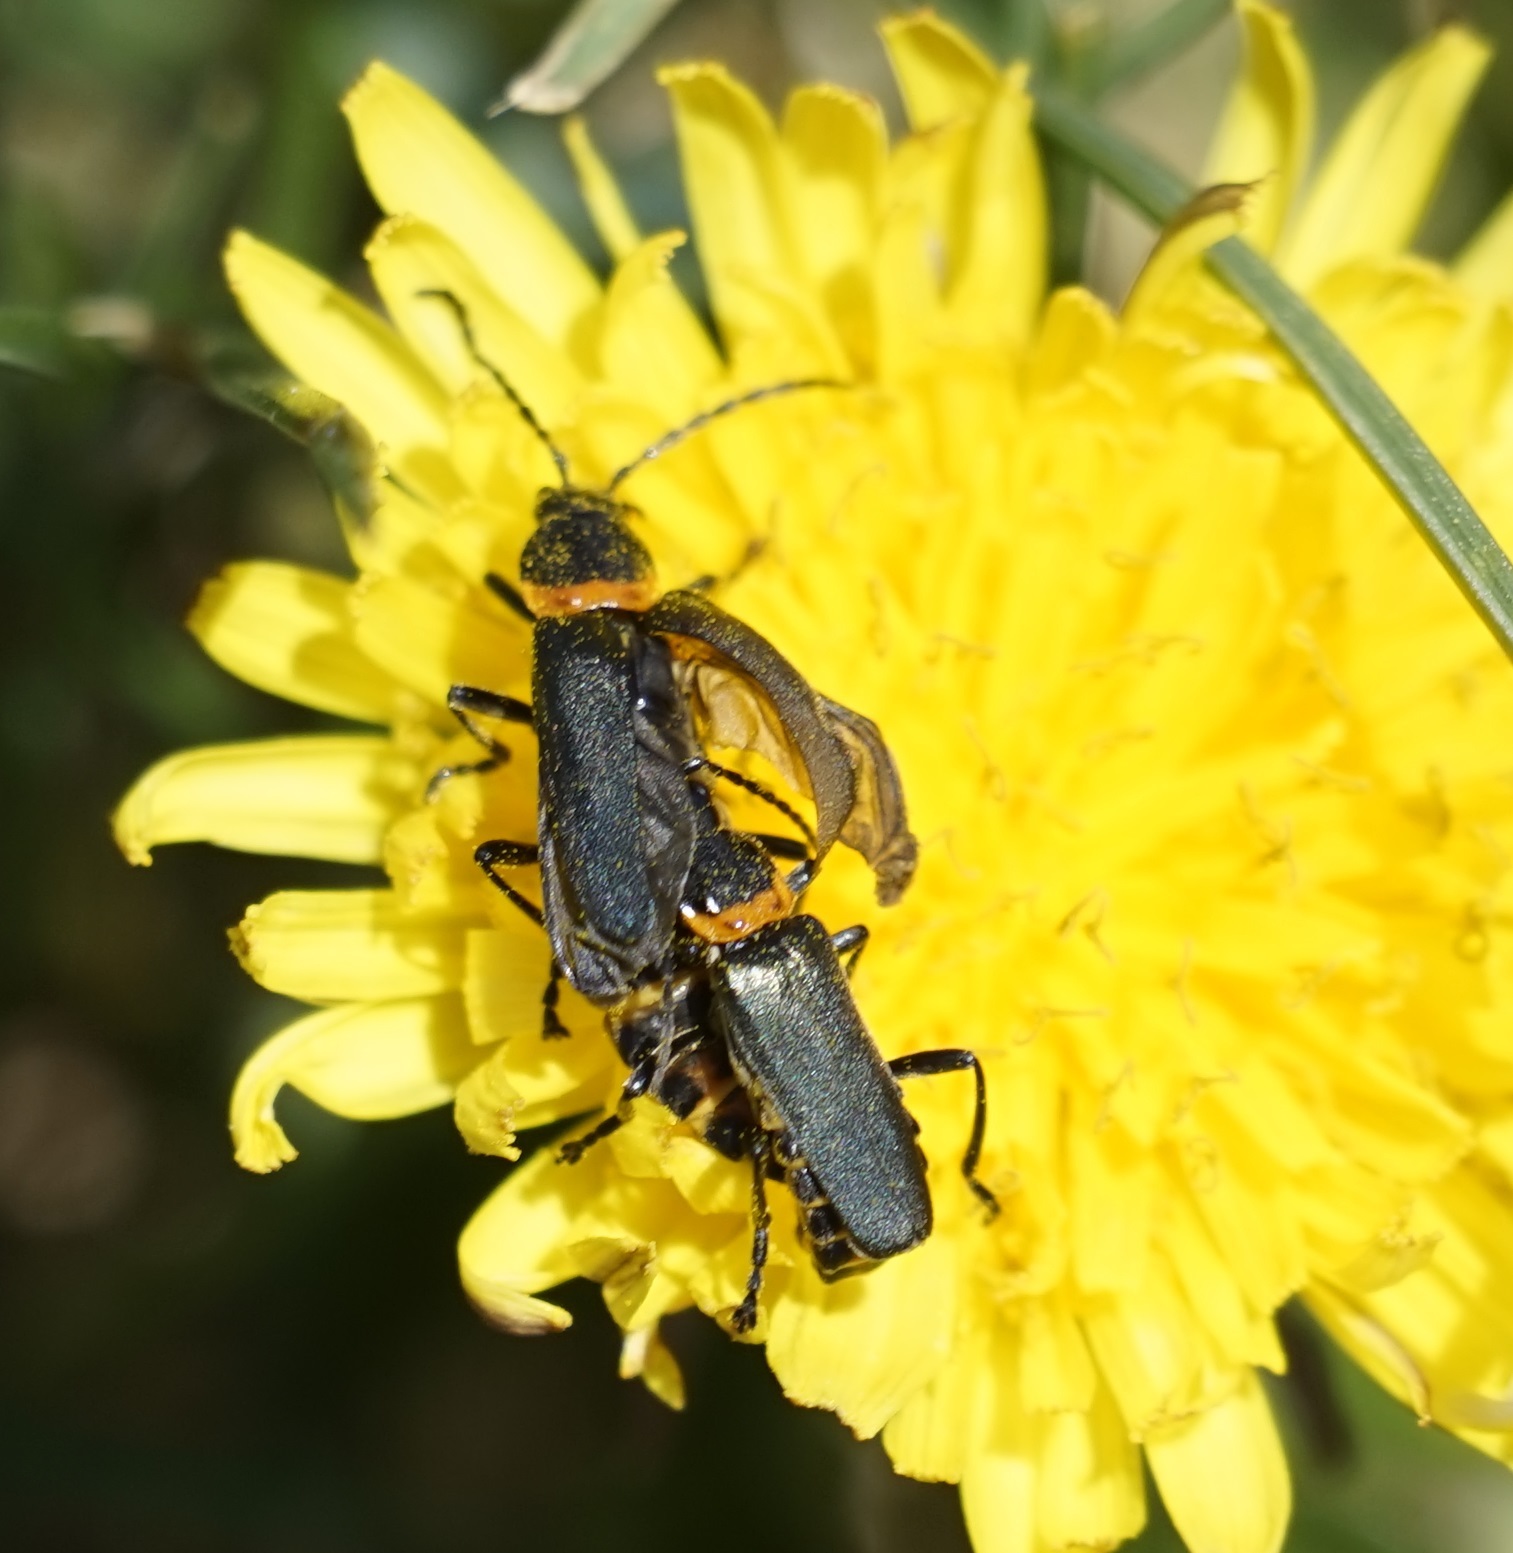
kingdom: Animalia
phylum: Arthropoda
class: Insecta
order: Coleoptera
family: Cantharidae
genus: Chauliognathus
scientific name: Chauliognathus
